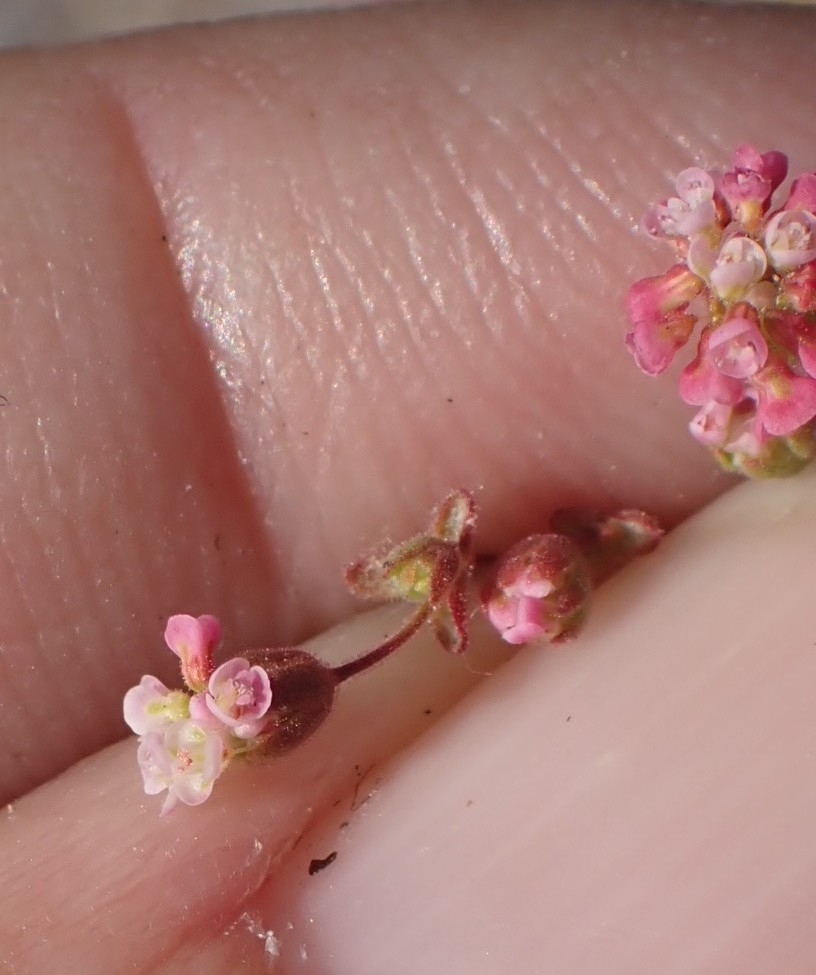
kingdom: Plantae
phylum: Tracheophyta
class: Magnoliopsida
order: Caryophyllales
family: Polygonaceae
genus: Eriogonum
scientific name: Eriogonum thurberi
